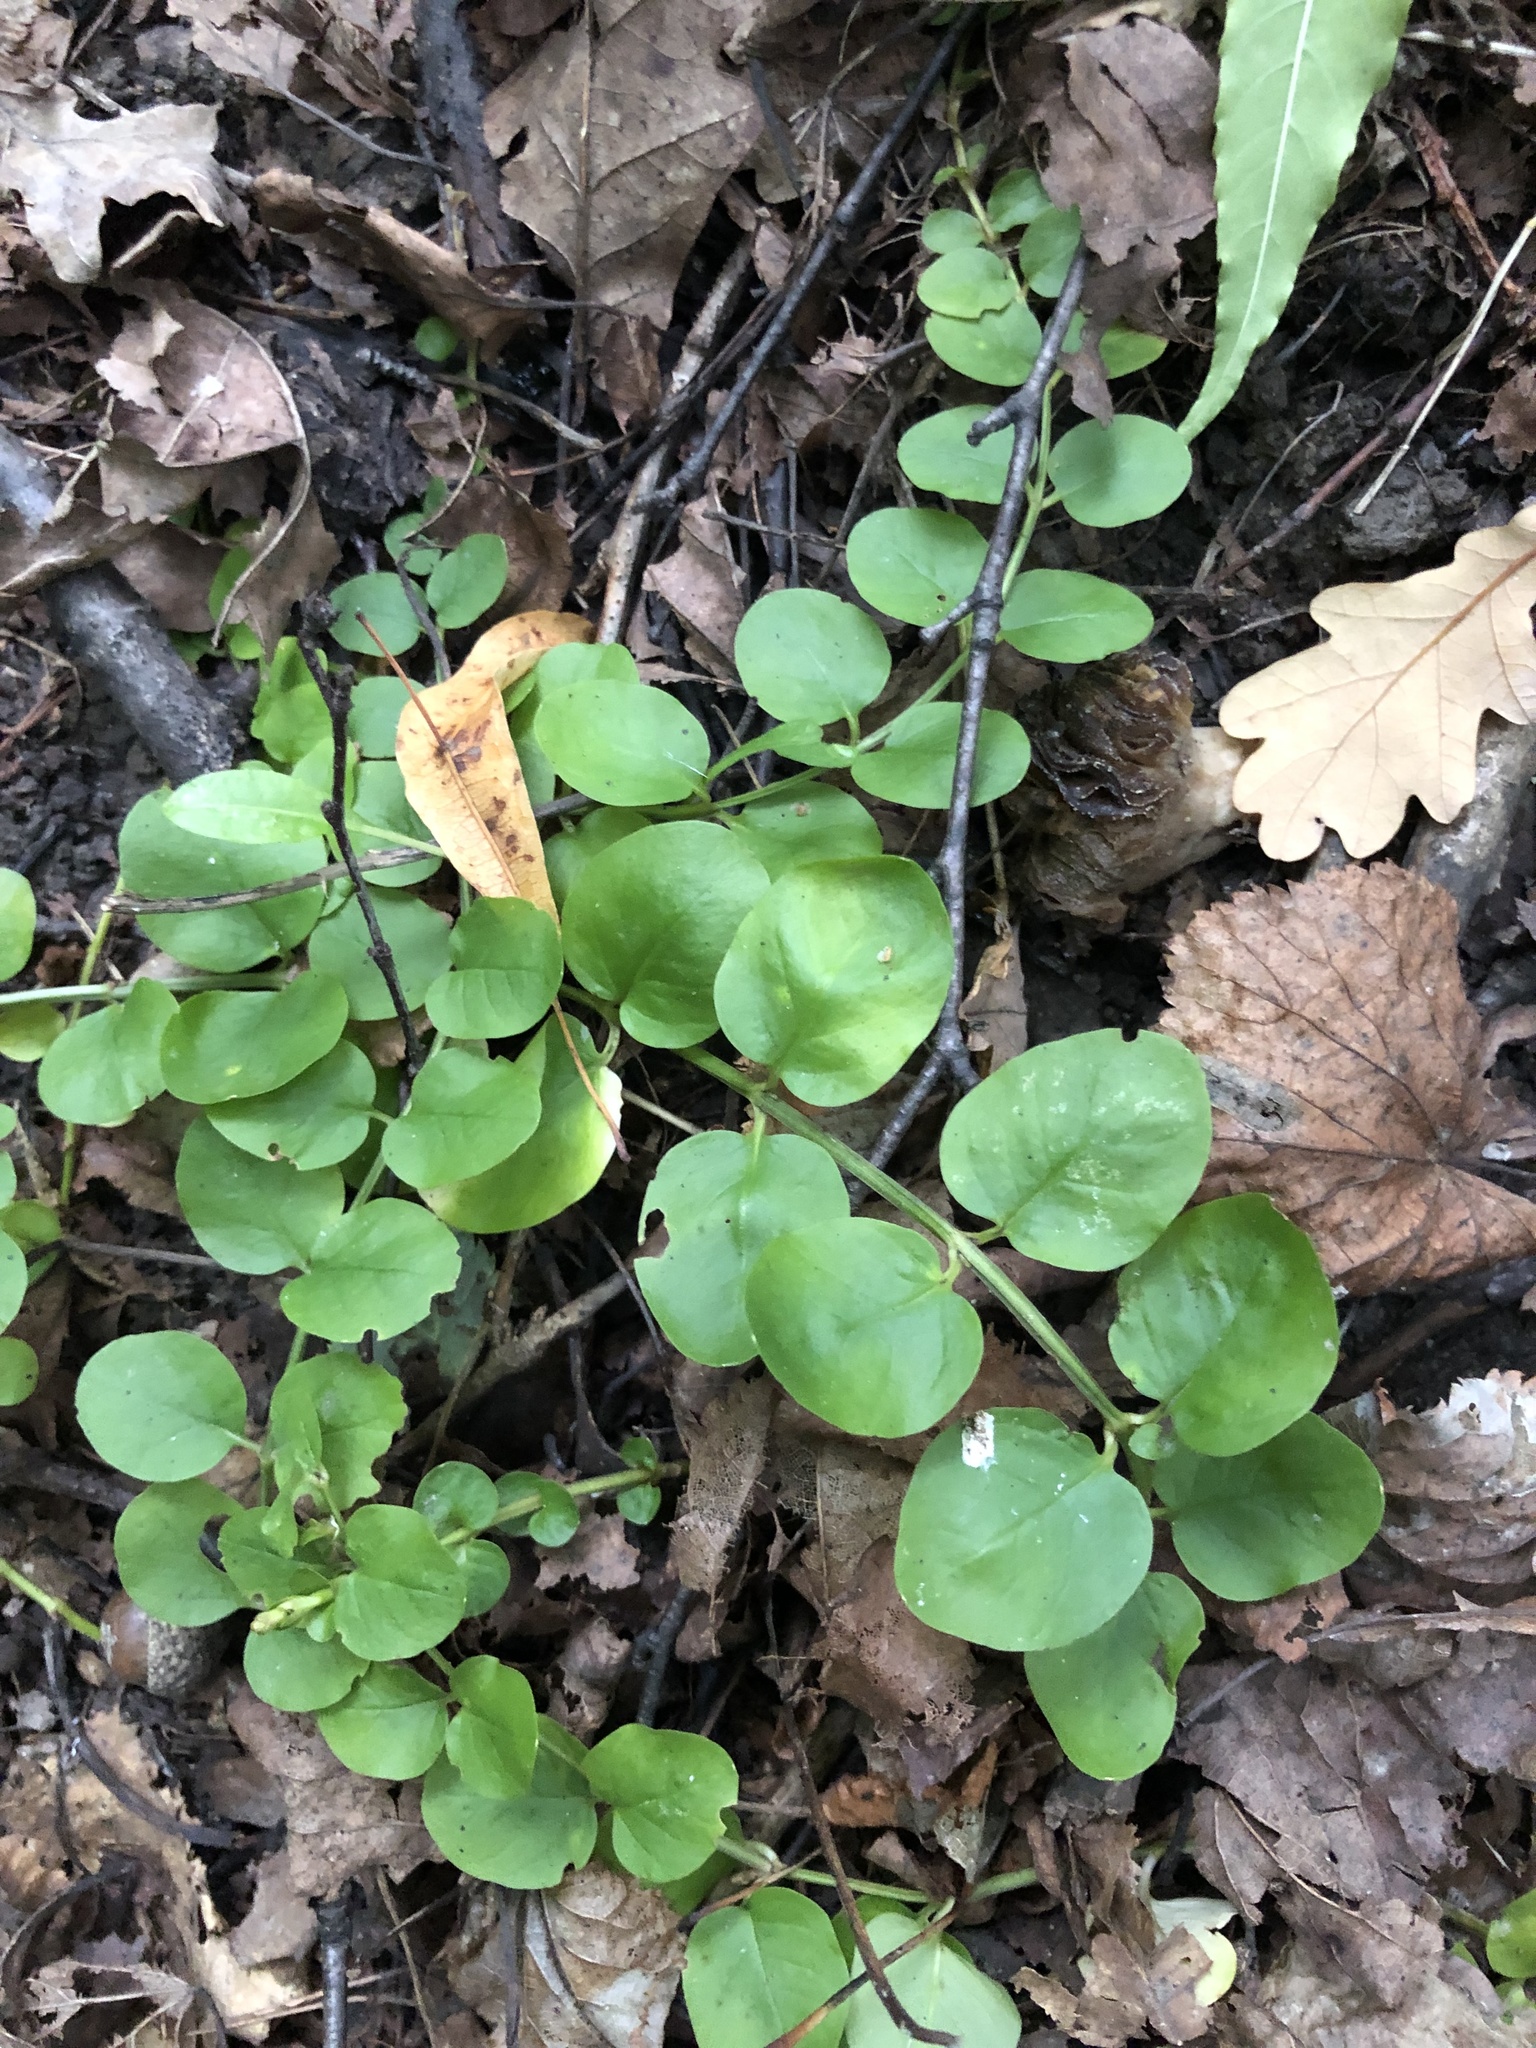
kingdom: Plantae
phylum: Tracheophyta
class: Magnoliopsida
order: Ericales
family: Primulaceae
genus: Lysimachia
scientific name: Lysimachia nummularia
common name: Moneywort
